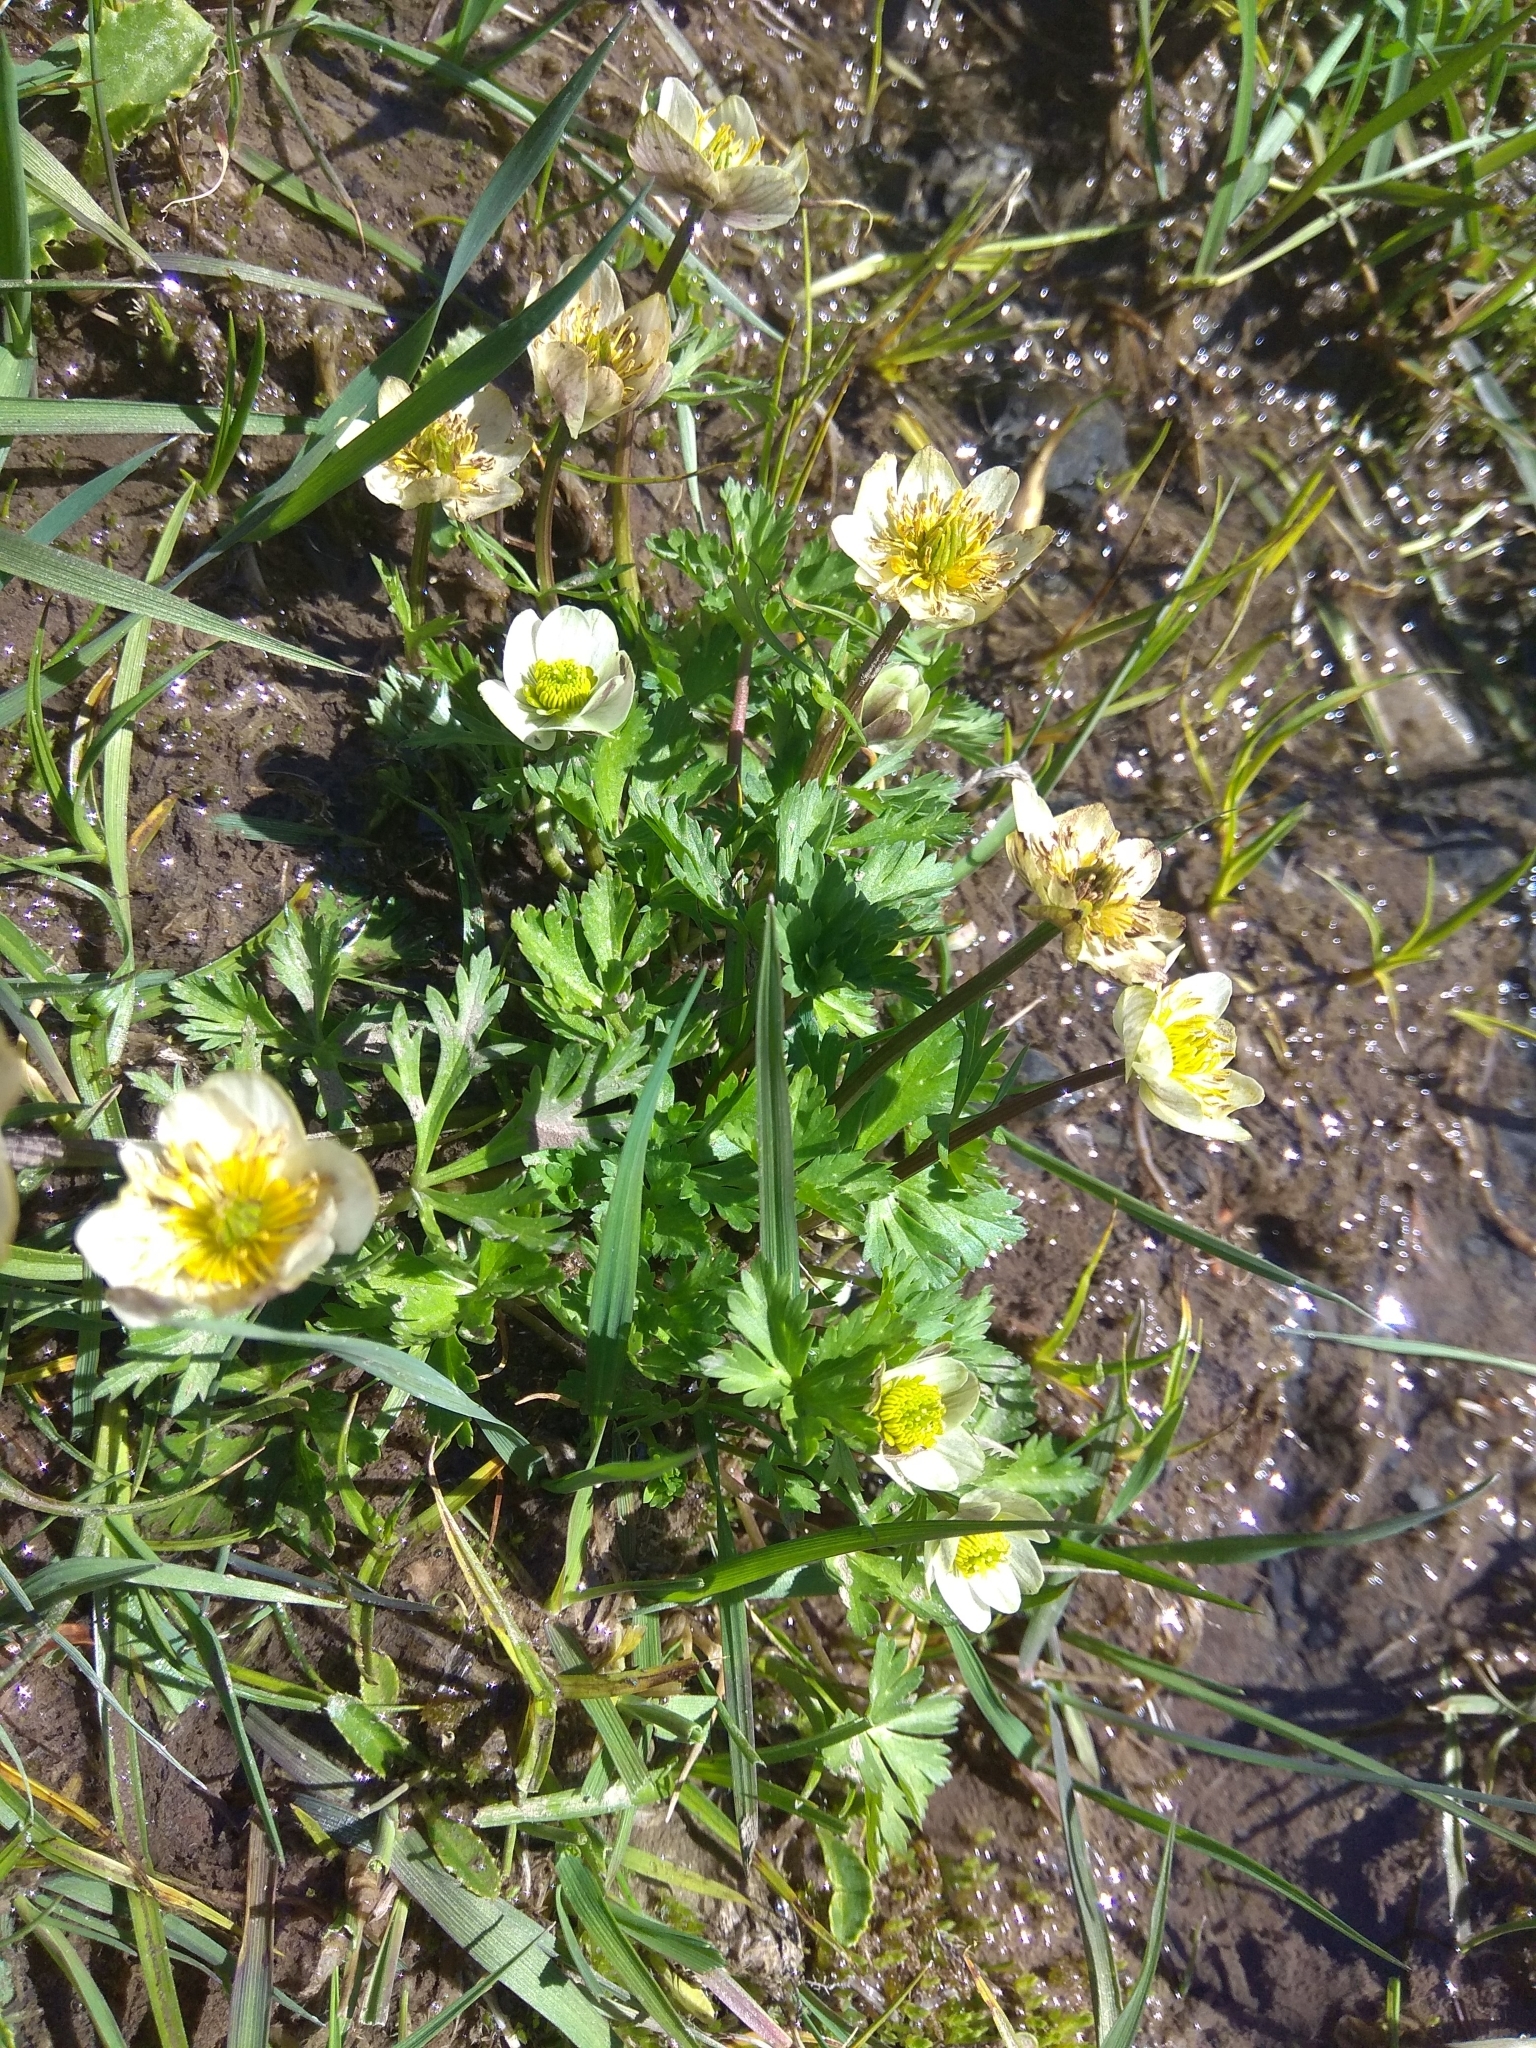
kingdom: Plantae
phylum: Tracheophyta
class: Magnoliopsida
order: Ranunculales
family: Ranunculaceae
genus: Trollius
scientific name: Trollius komarovii
